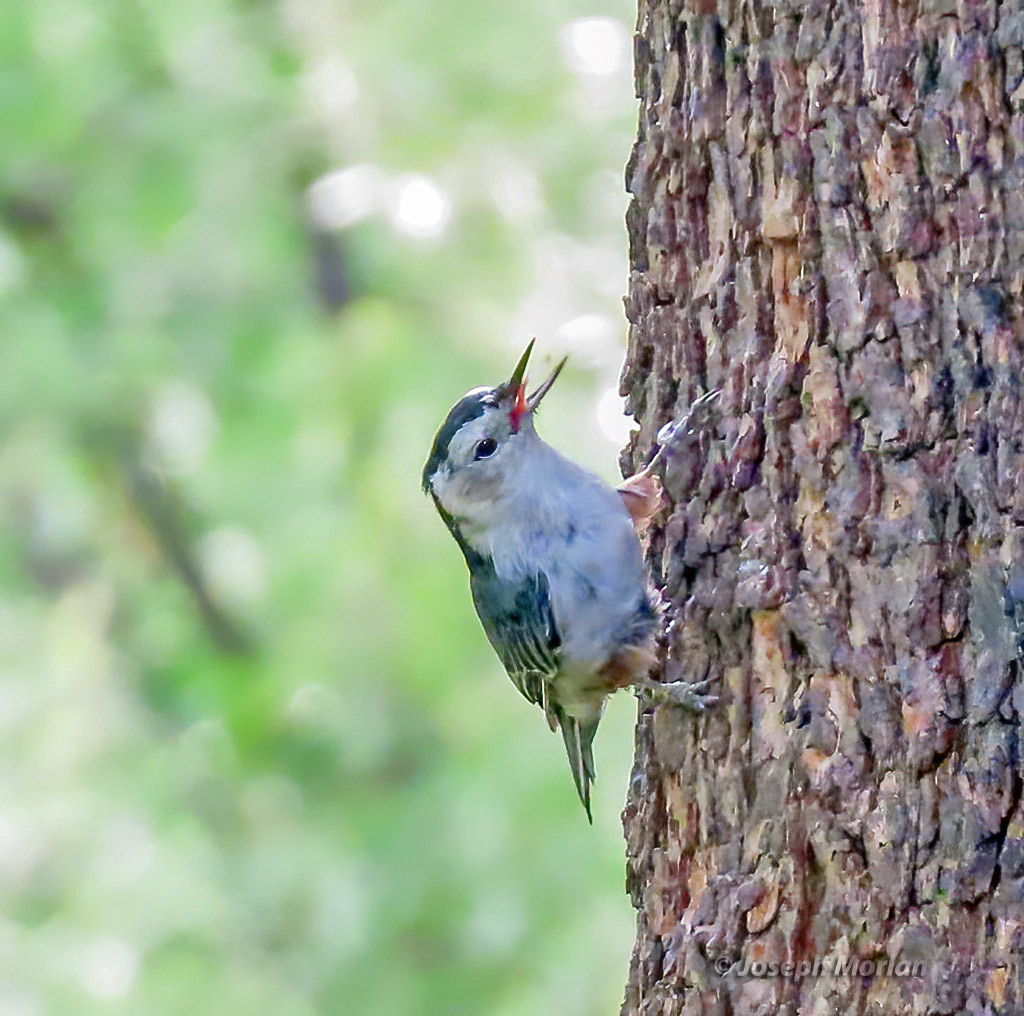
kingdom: Animalia
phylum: Chordata
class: Aves
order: Passeriformes
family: Sittidae
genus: Sitta
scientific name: Sitta carolinensis
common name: White-breasted nuthatch
